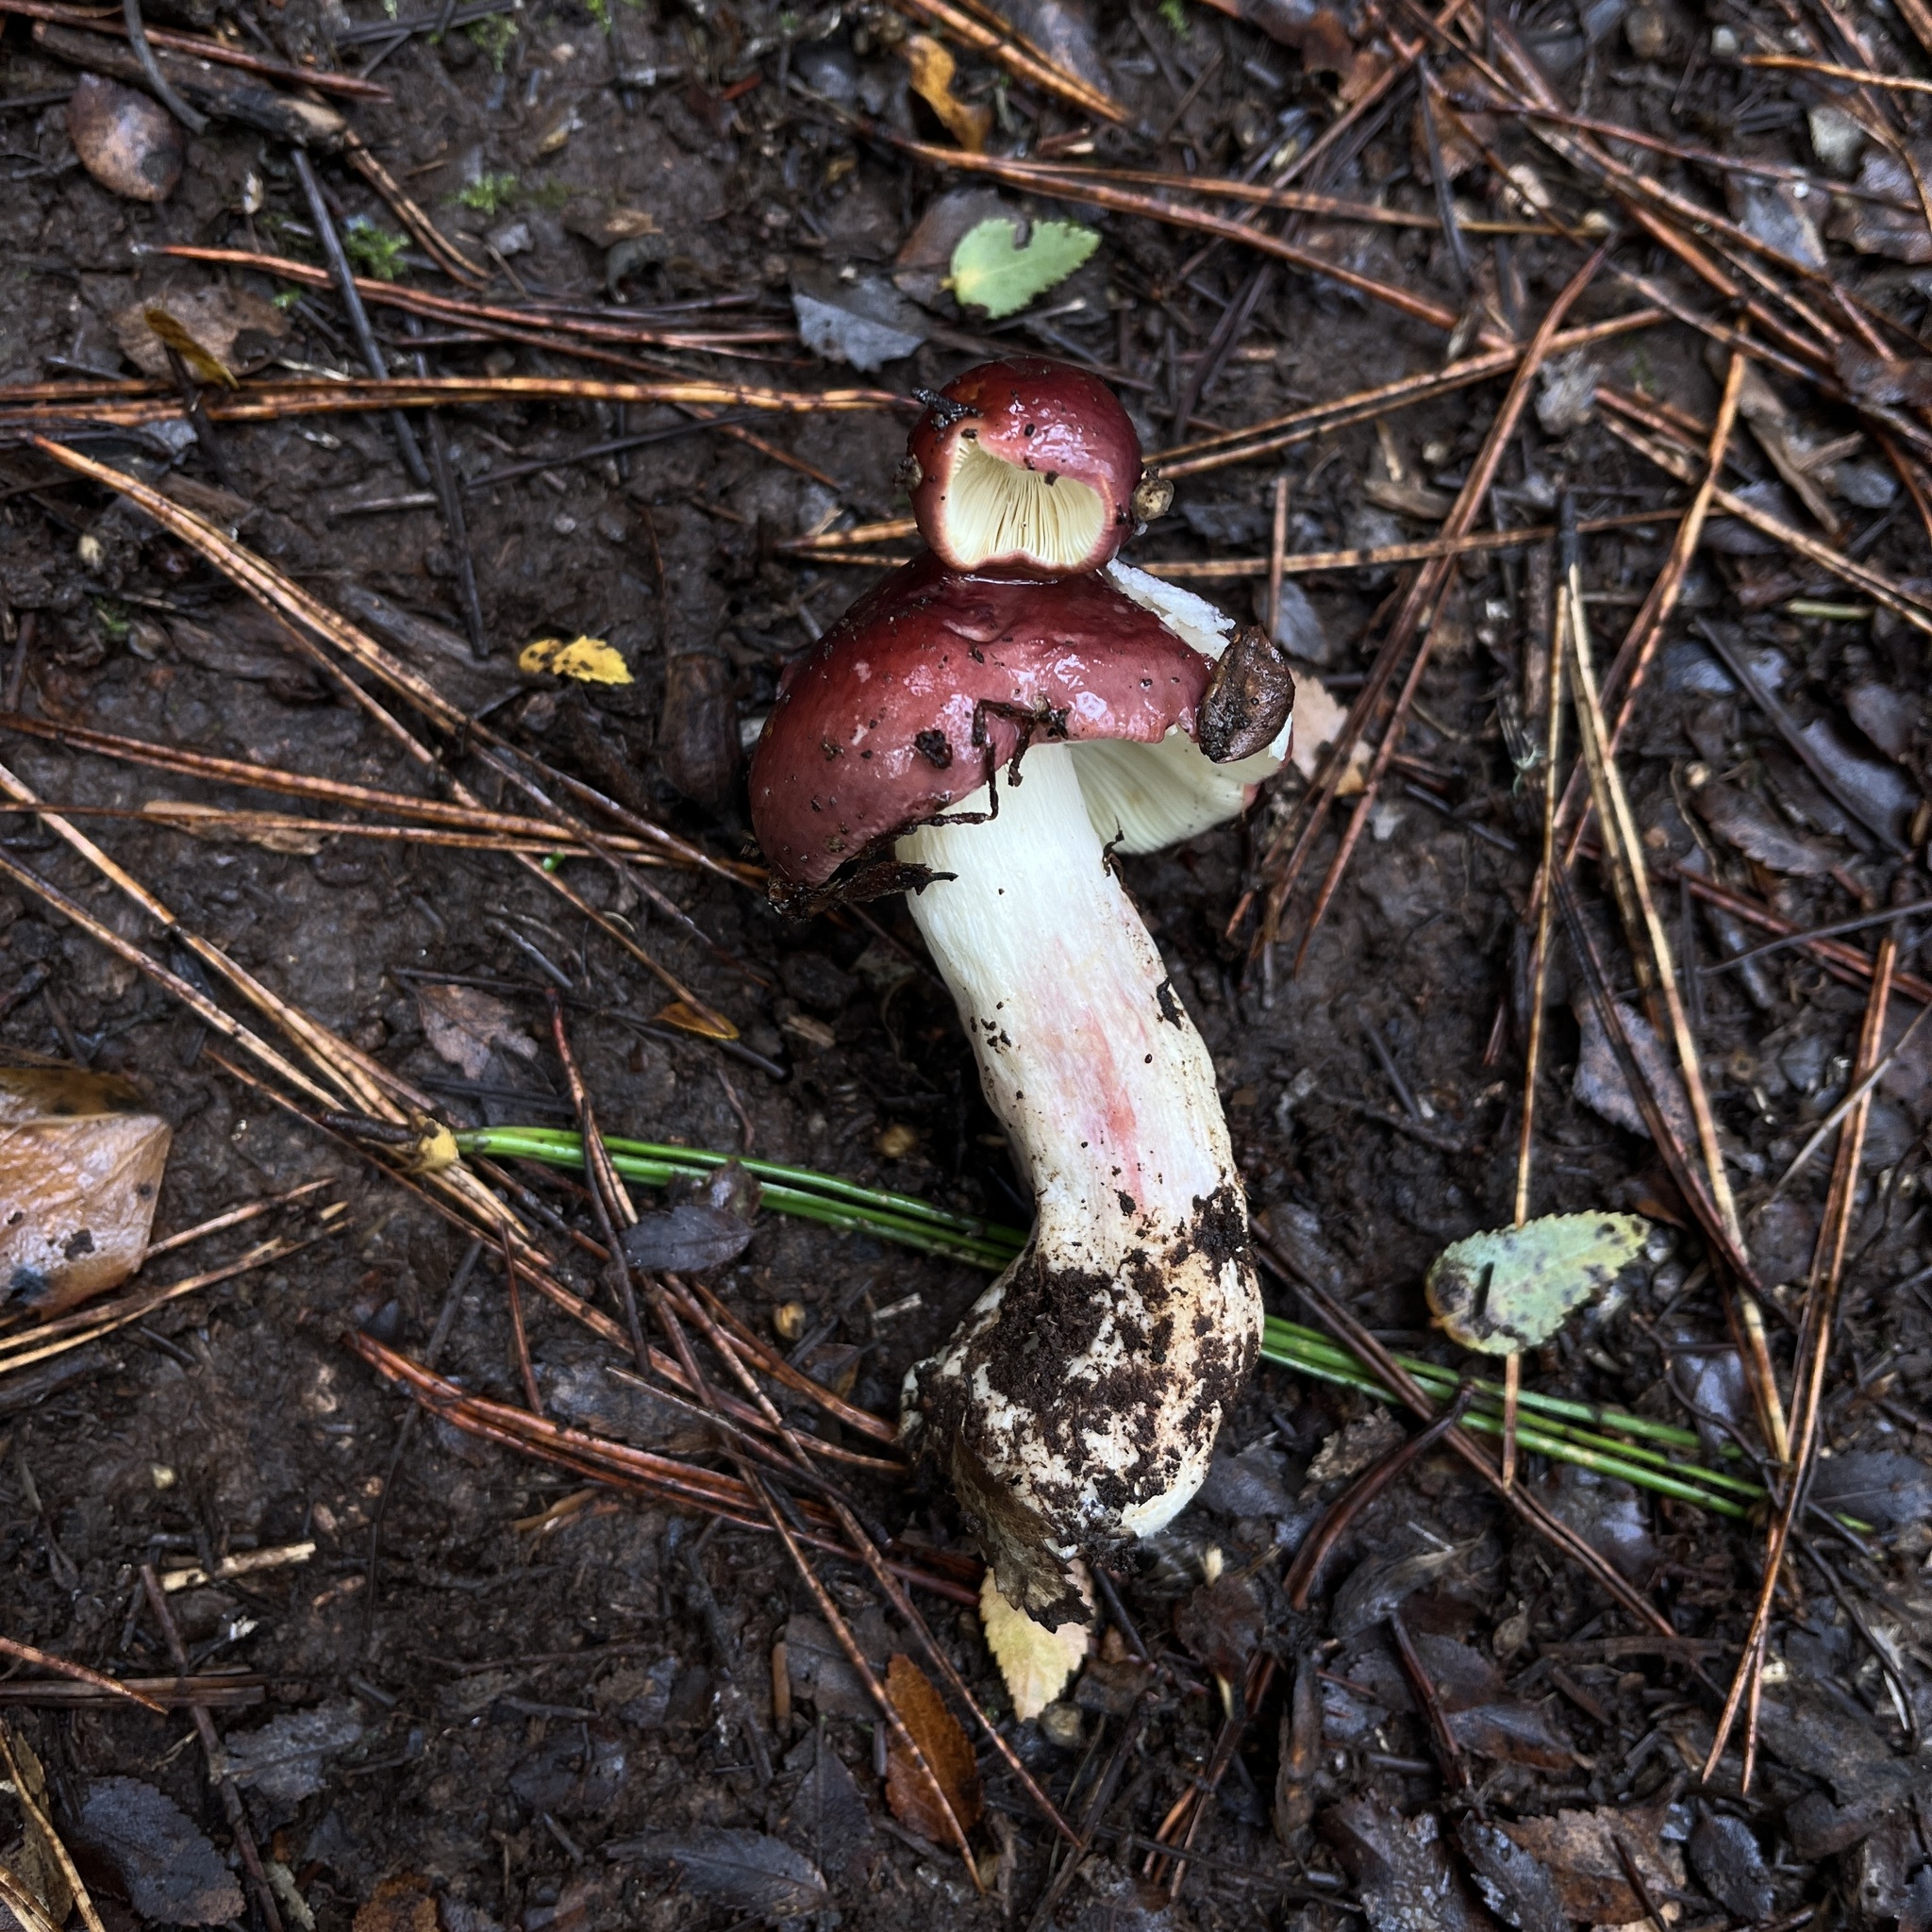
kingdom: Fungi
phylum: Basidiomycota
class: Agaricomycetes
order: Russulales
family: Russulaceae
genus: Russula
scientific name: Russula sardonia
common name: Primrose brittlegill
